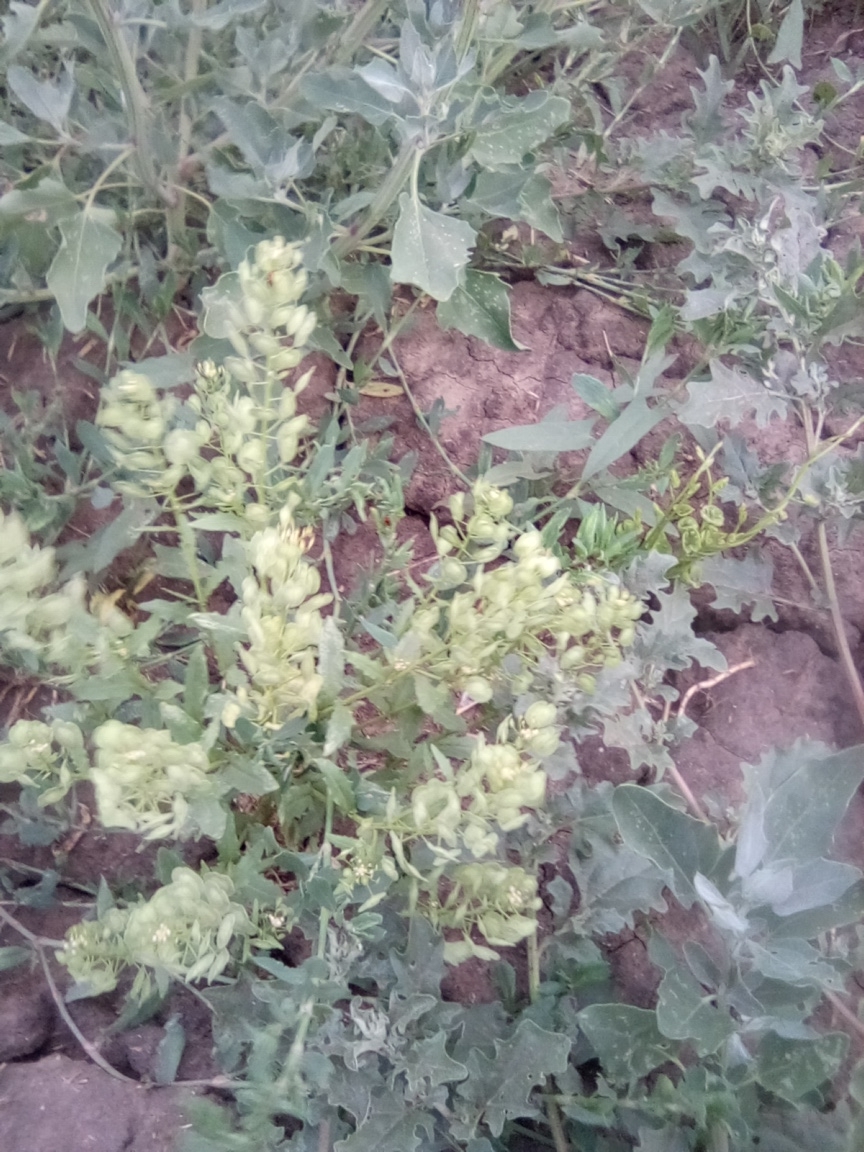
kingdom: Plantae
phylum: Tracheophyta
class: Magnoliopsida
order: Brassicales
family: Brassicaceae
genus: Thlaspi
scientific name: Thlaspi arvense
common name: Field pennycress
